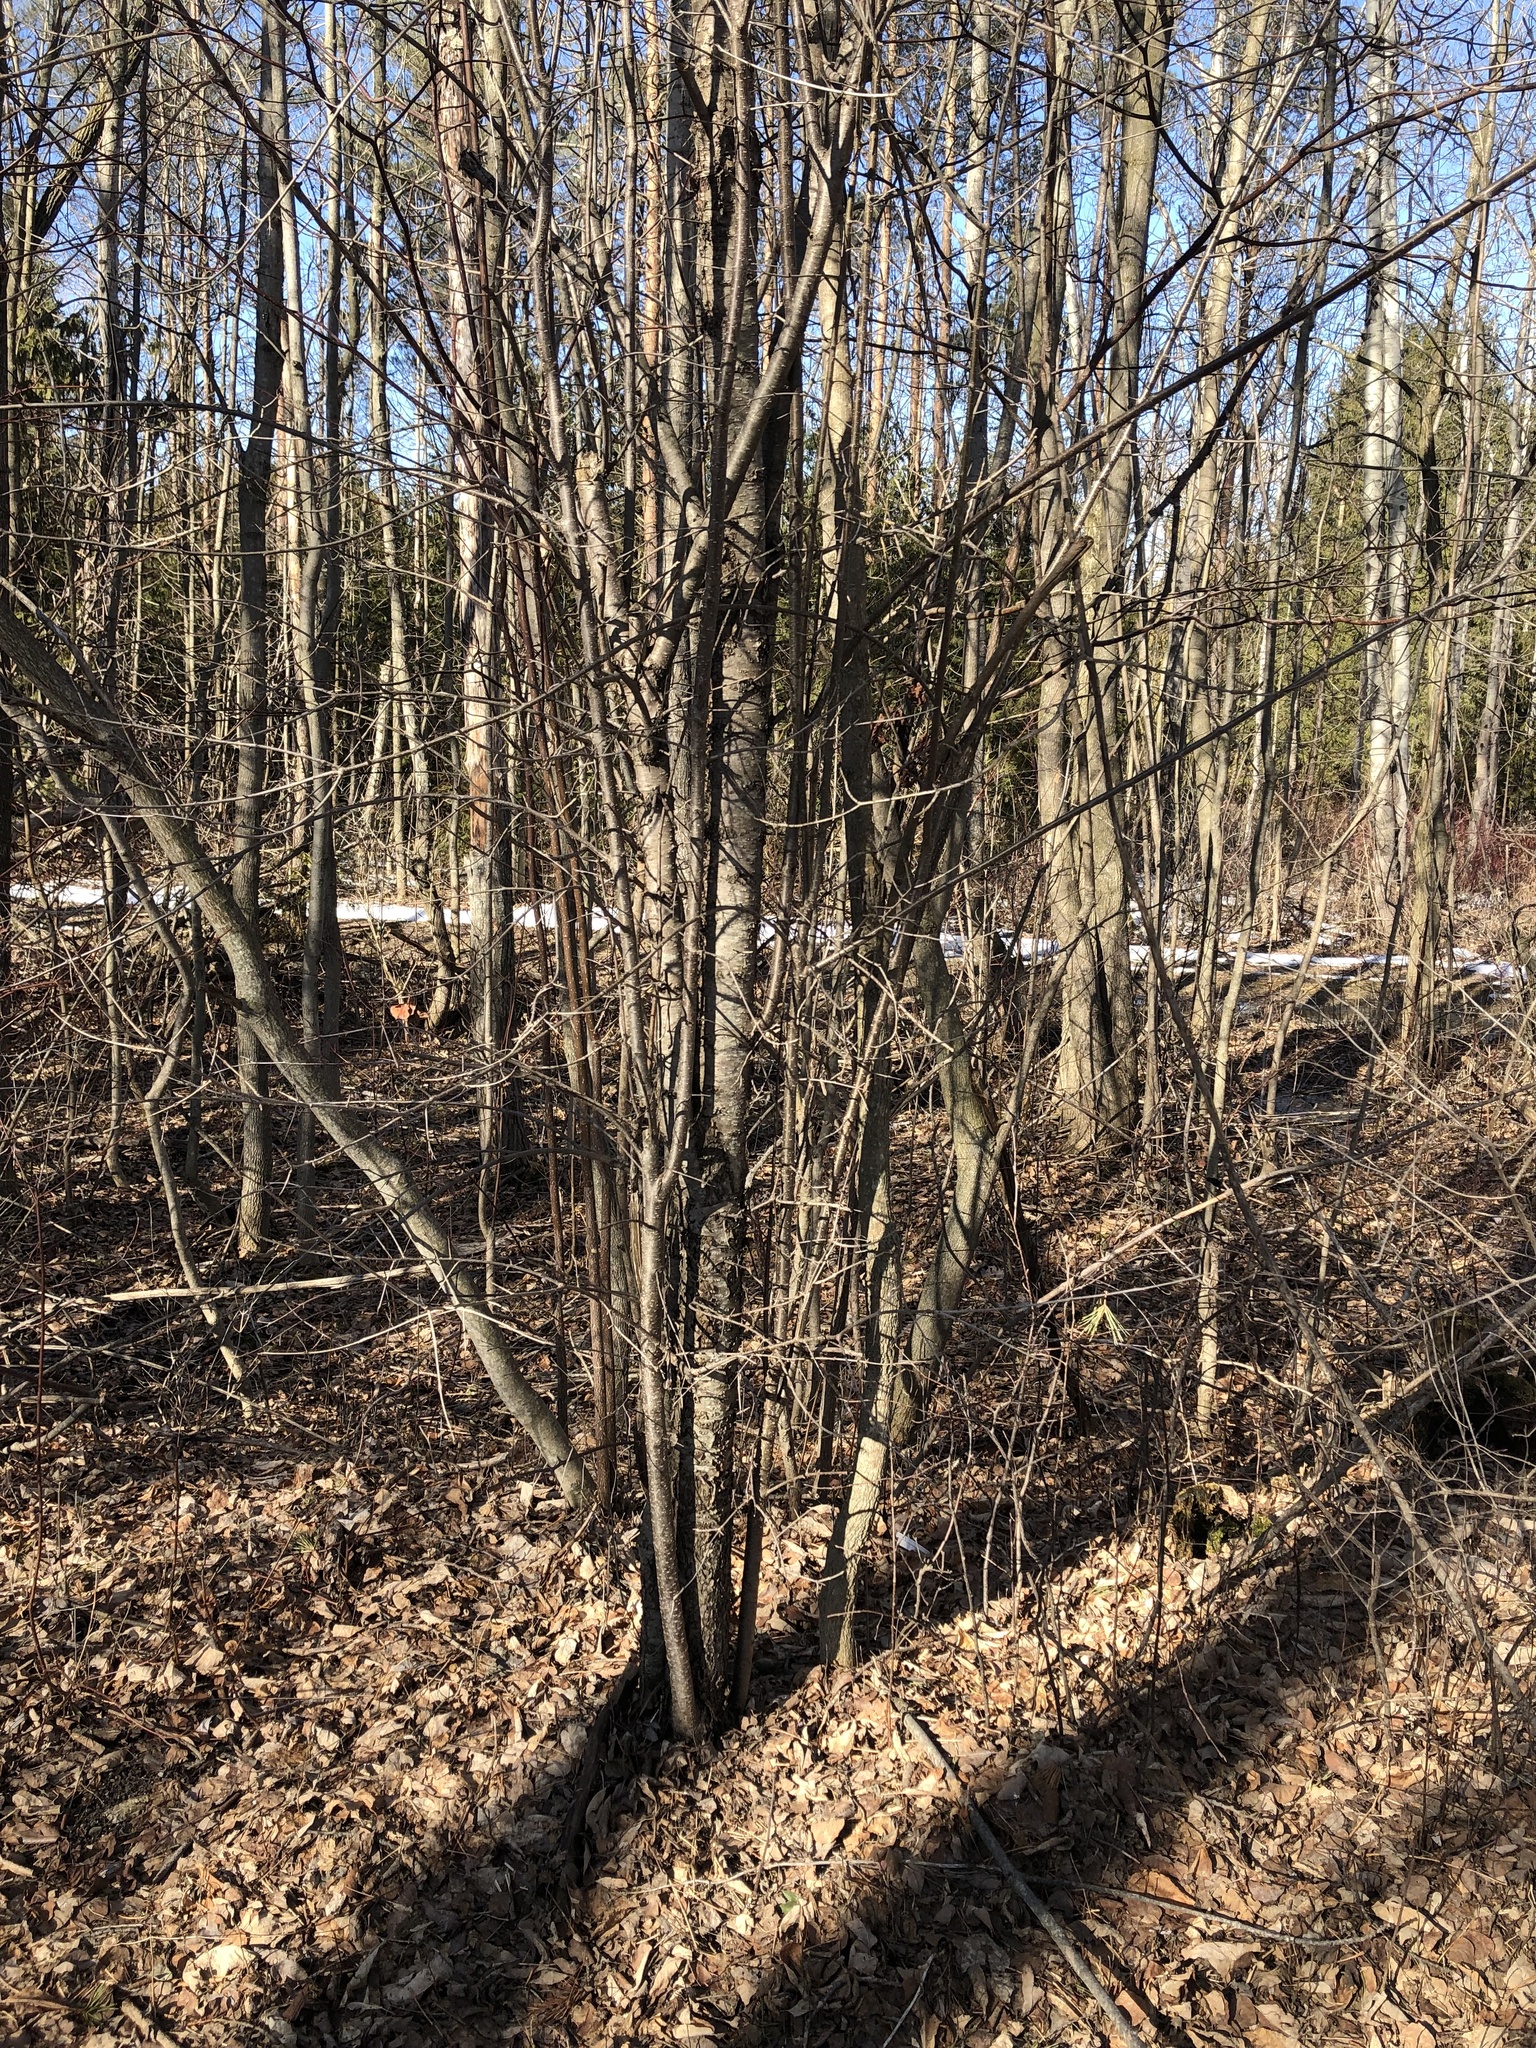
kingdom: Plantae
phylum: Tracheophyta
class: Magnoliopsida
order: Rosales
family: Rhamnaceae
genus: Rhamnus
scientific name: Rhamnus cathartica
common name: Common buckthorn
